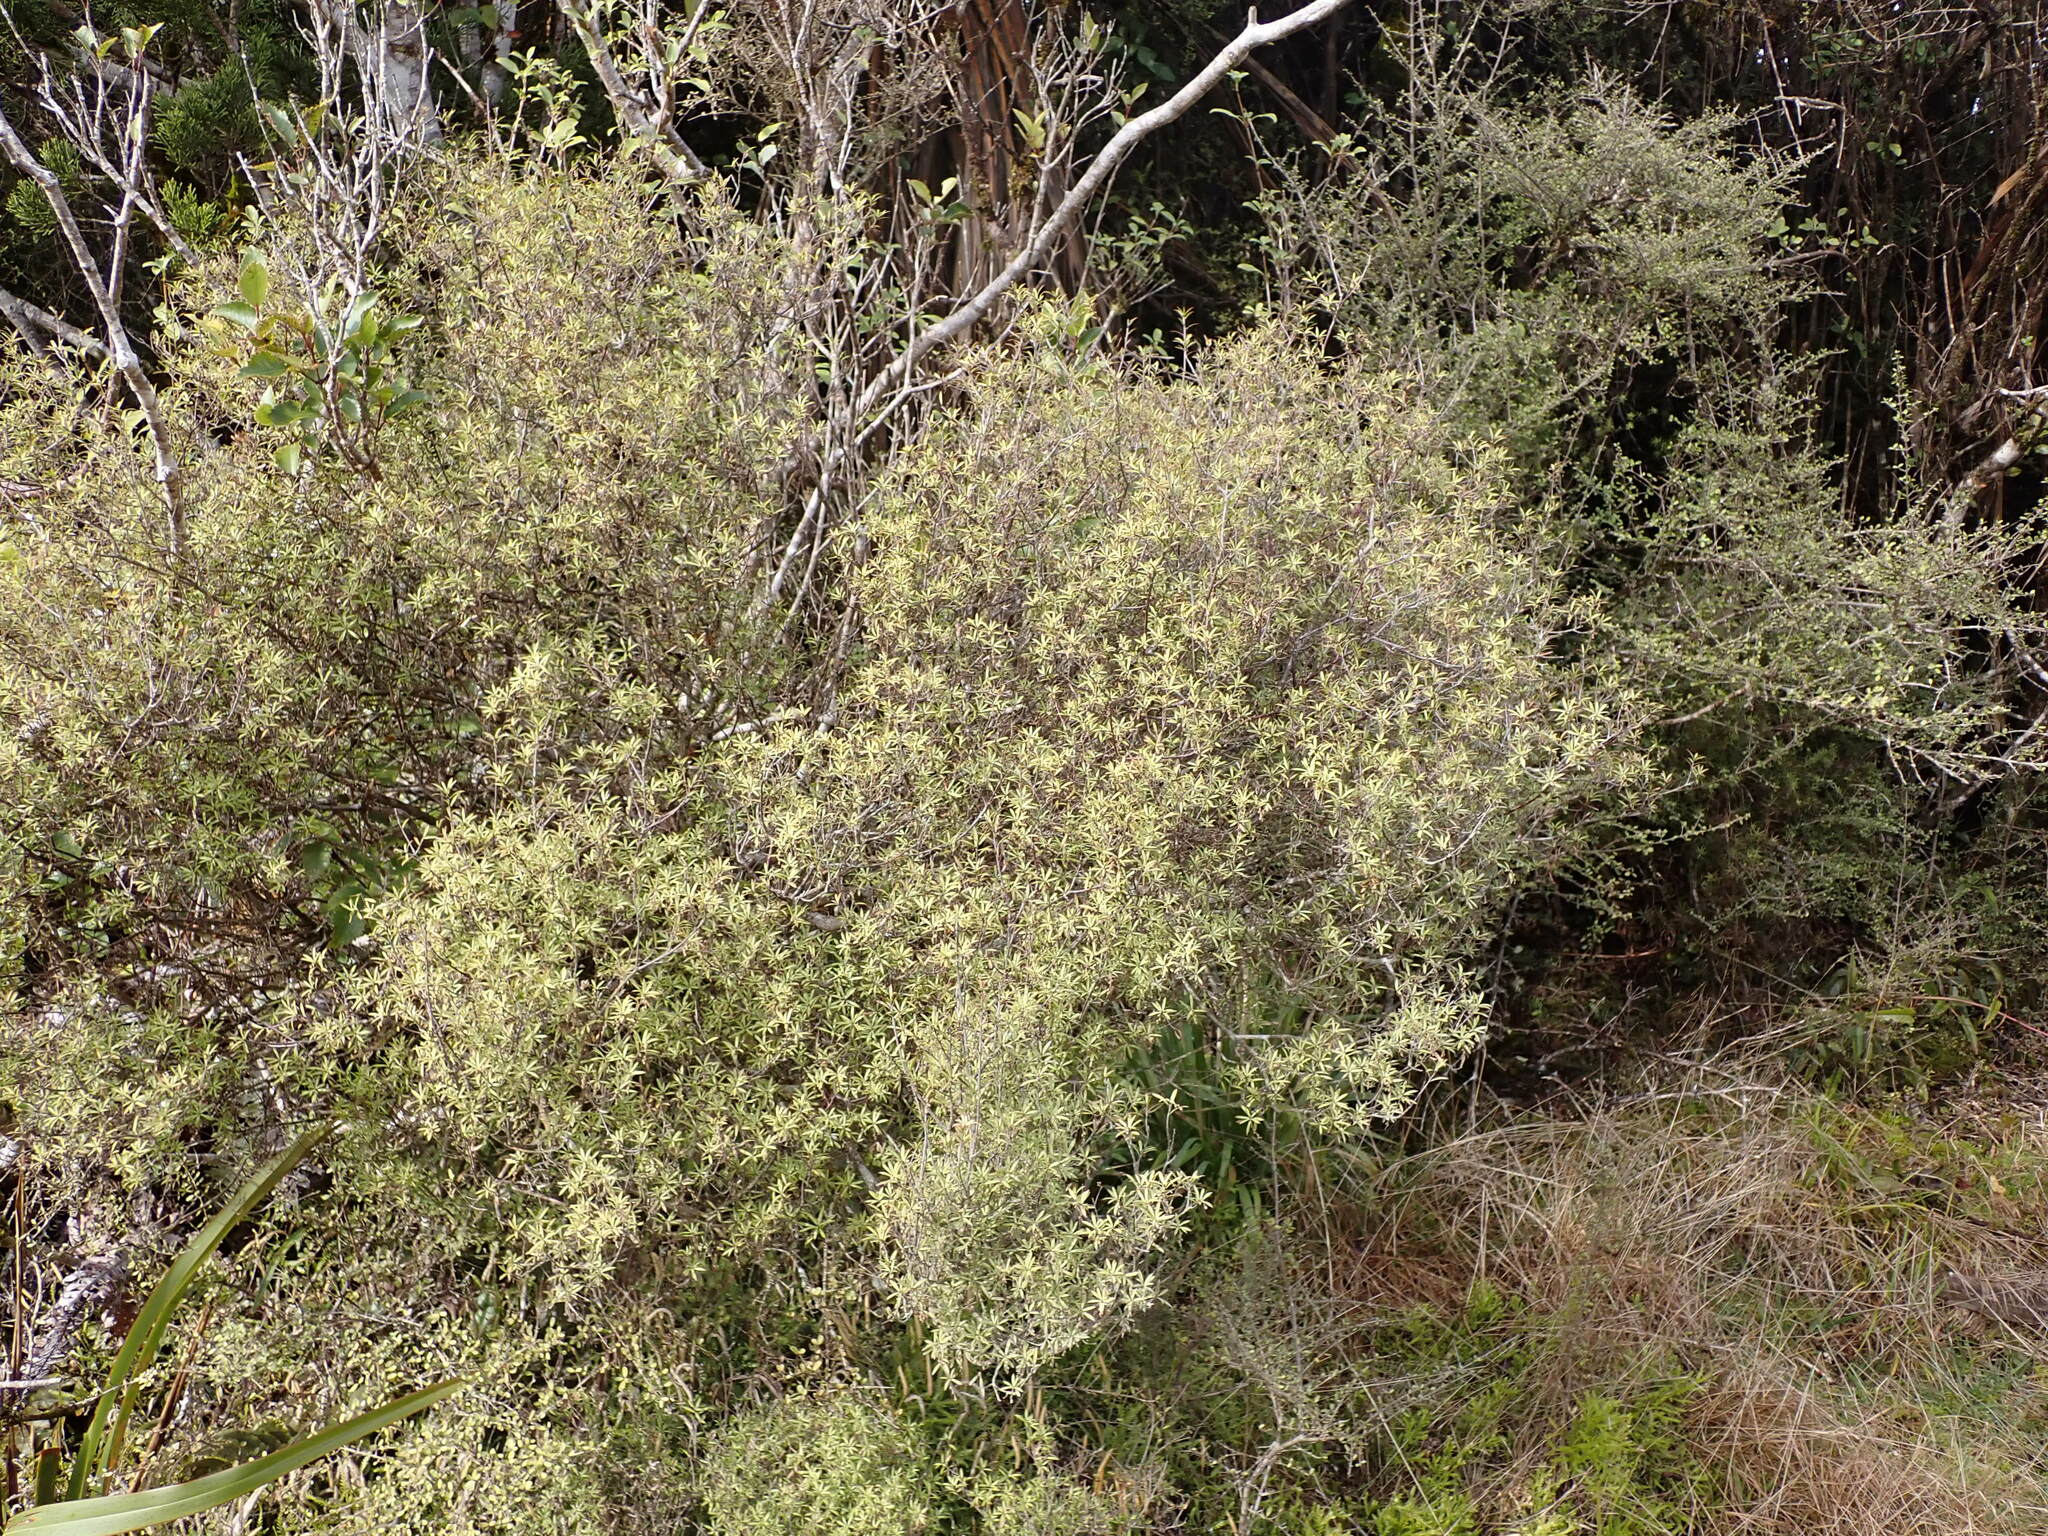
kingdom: Plantae
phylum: Tracheophyta
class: Magnoliopsida
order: Ericales
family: Ericaceae
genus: Leucopogon
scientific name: Leucopogon fasciculatus
